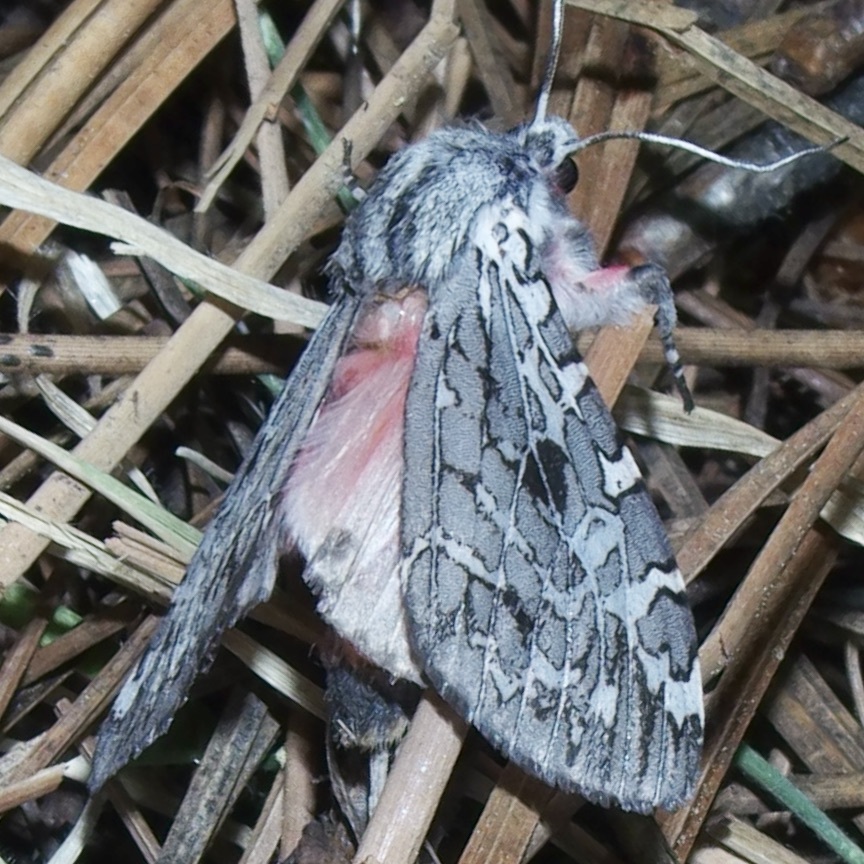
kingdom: Animalia
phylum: Arthropoda
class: Insecta
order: Lepidoptera
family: Erebidae
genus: Arachnis
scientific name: Arachnis nedyma
